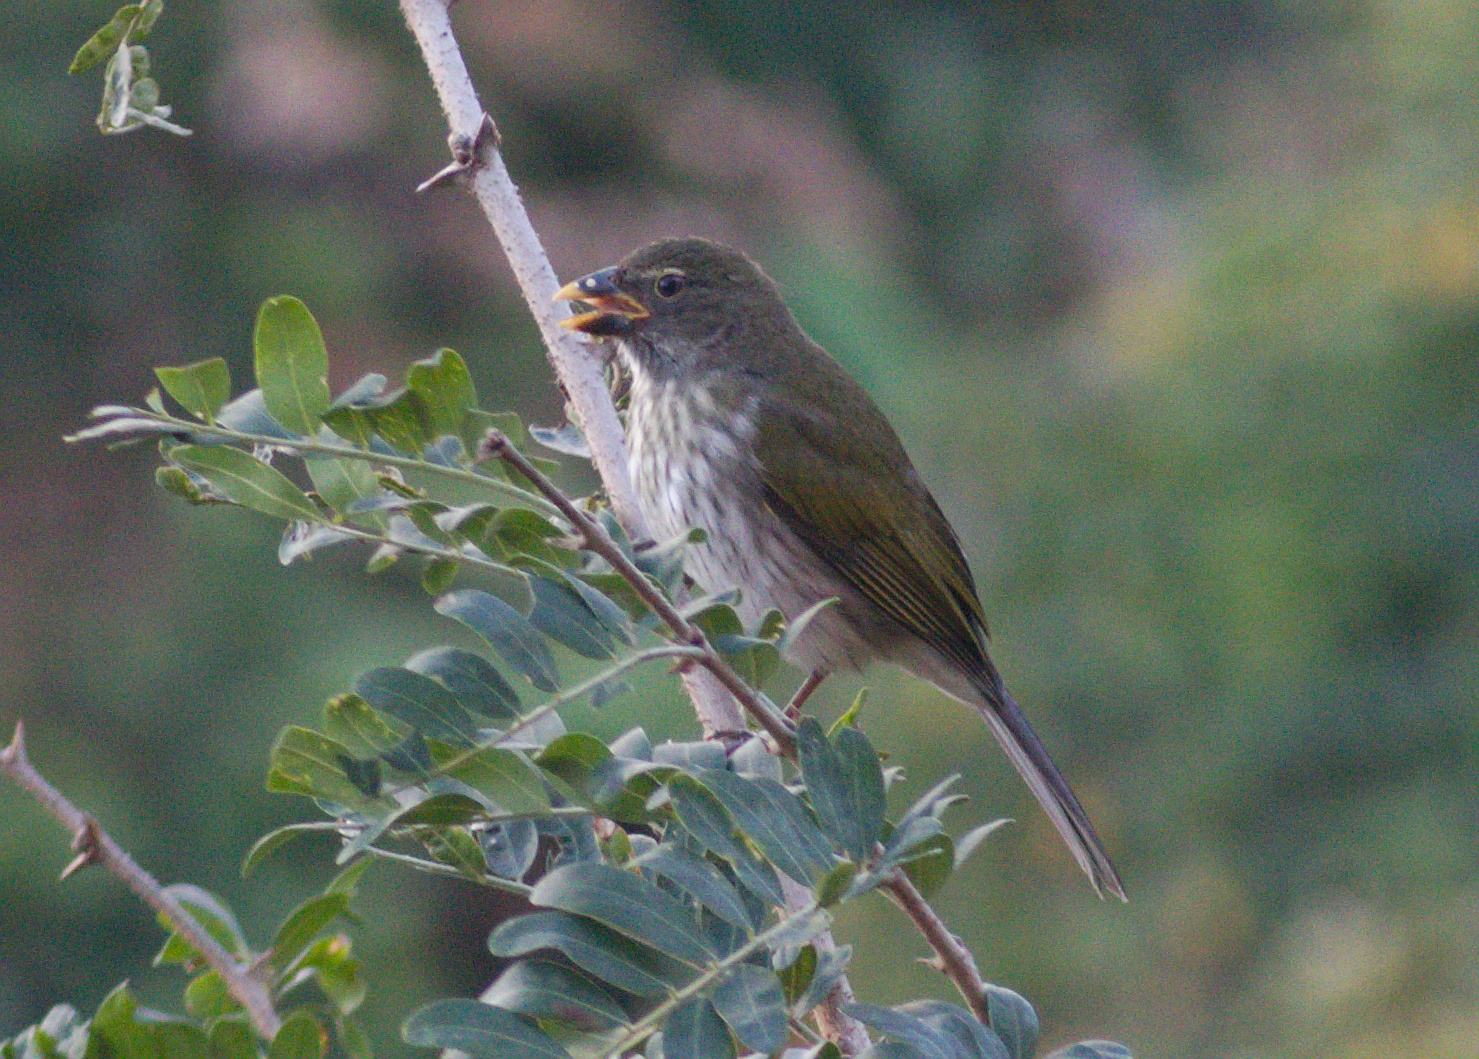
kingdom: Animalia
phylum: Chordata
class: Aves
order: Passeriformes
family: Thraupidae
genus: Saltator
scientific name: Saltator striatipectus
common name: Streaked saltator
